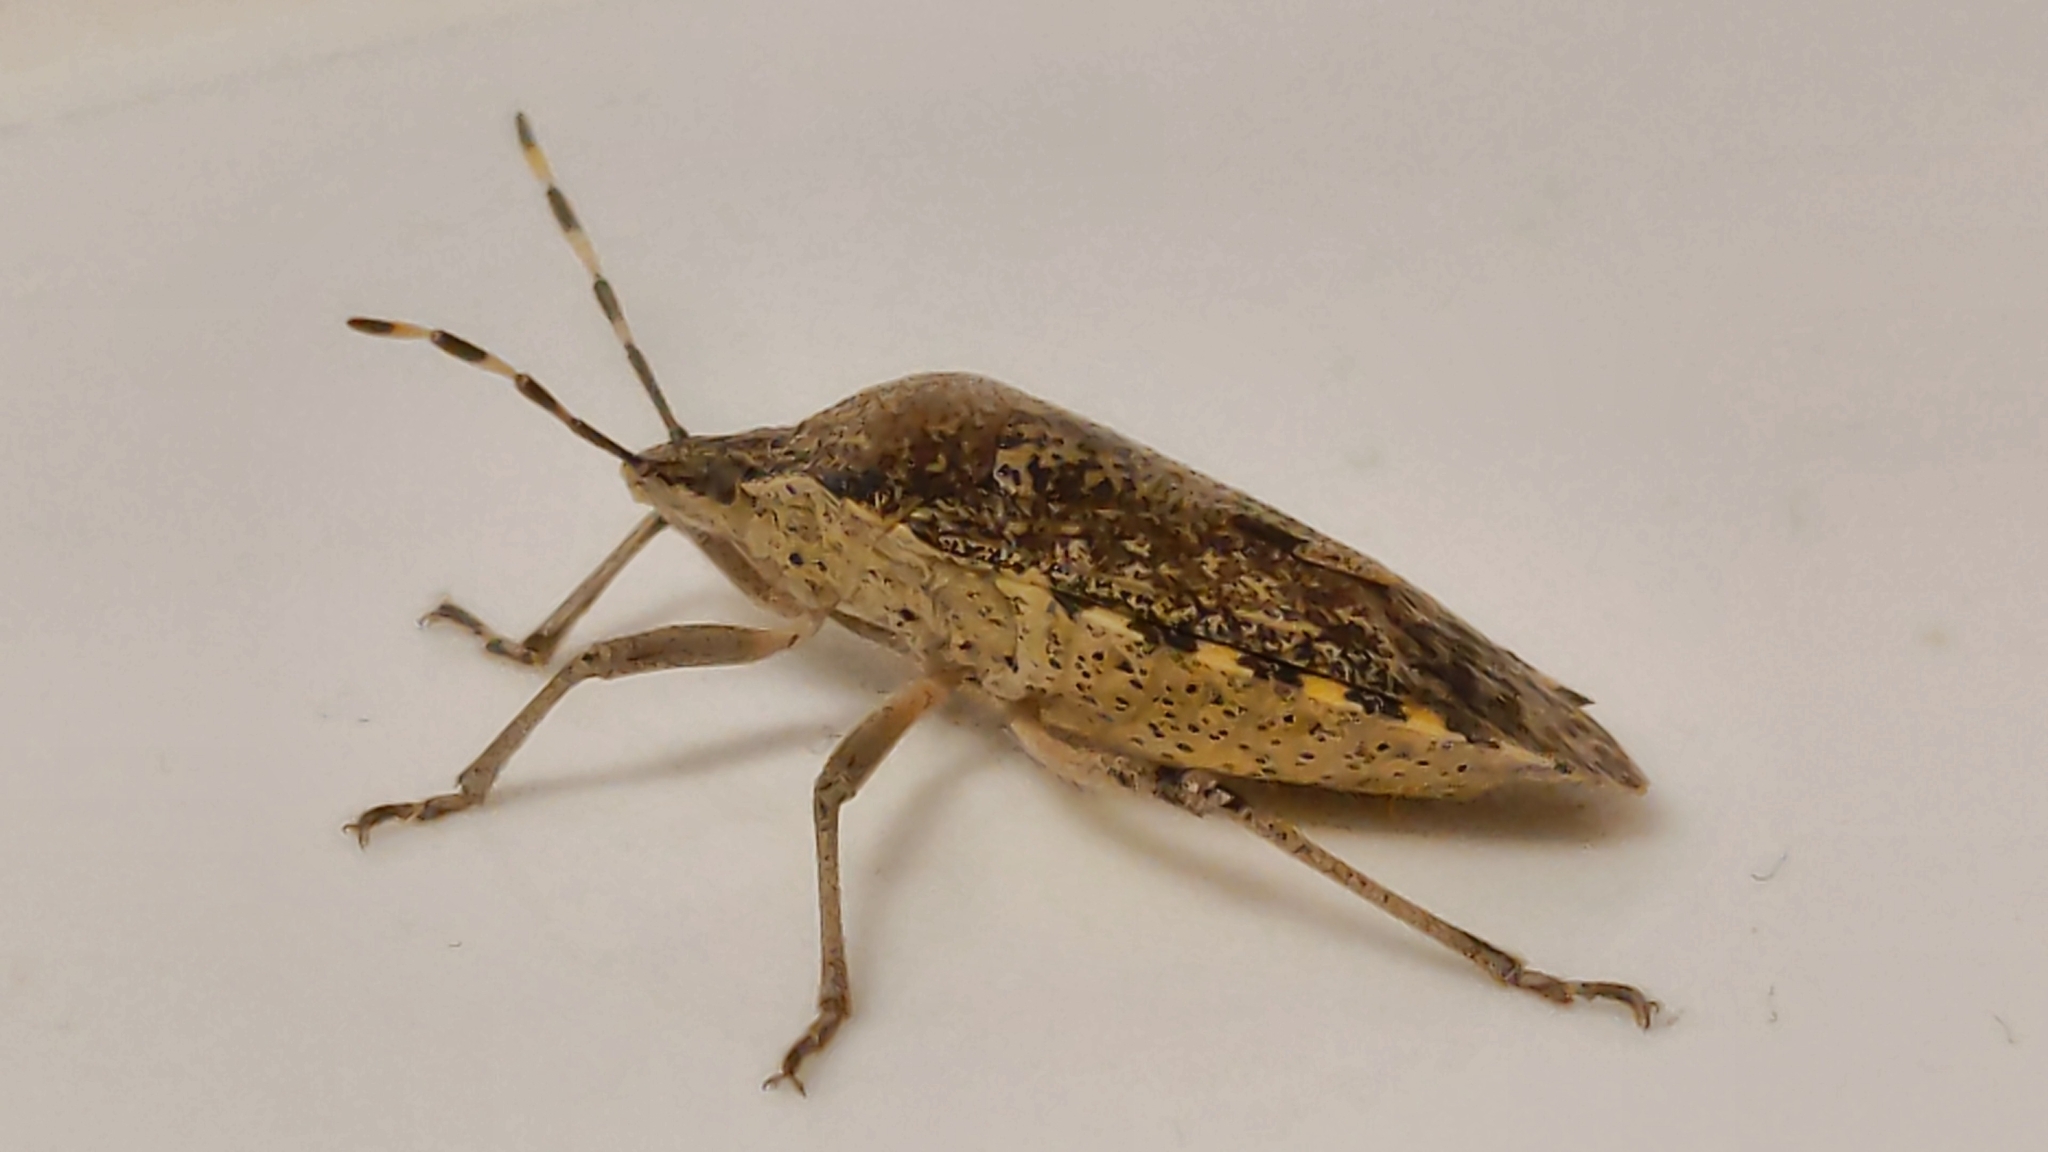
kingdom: Animalia
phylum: Arthropoda
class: Insecta
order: Hemiptera
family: Pentatomidae
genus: Rhaphigaster
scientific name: Rhaphigaster nebulosa
